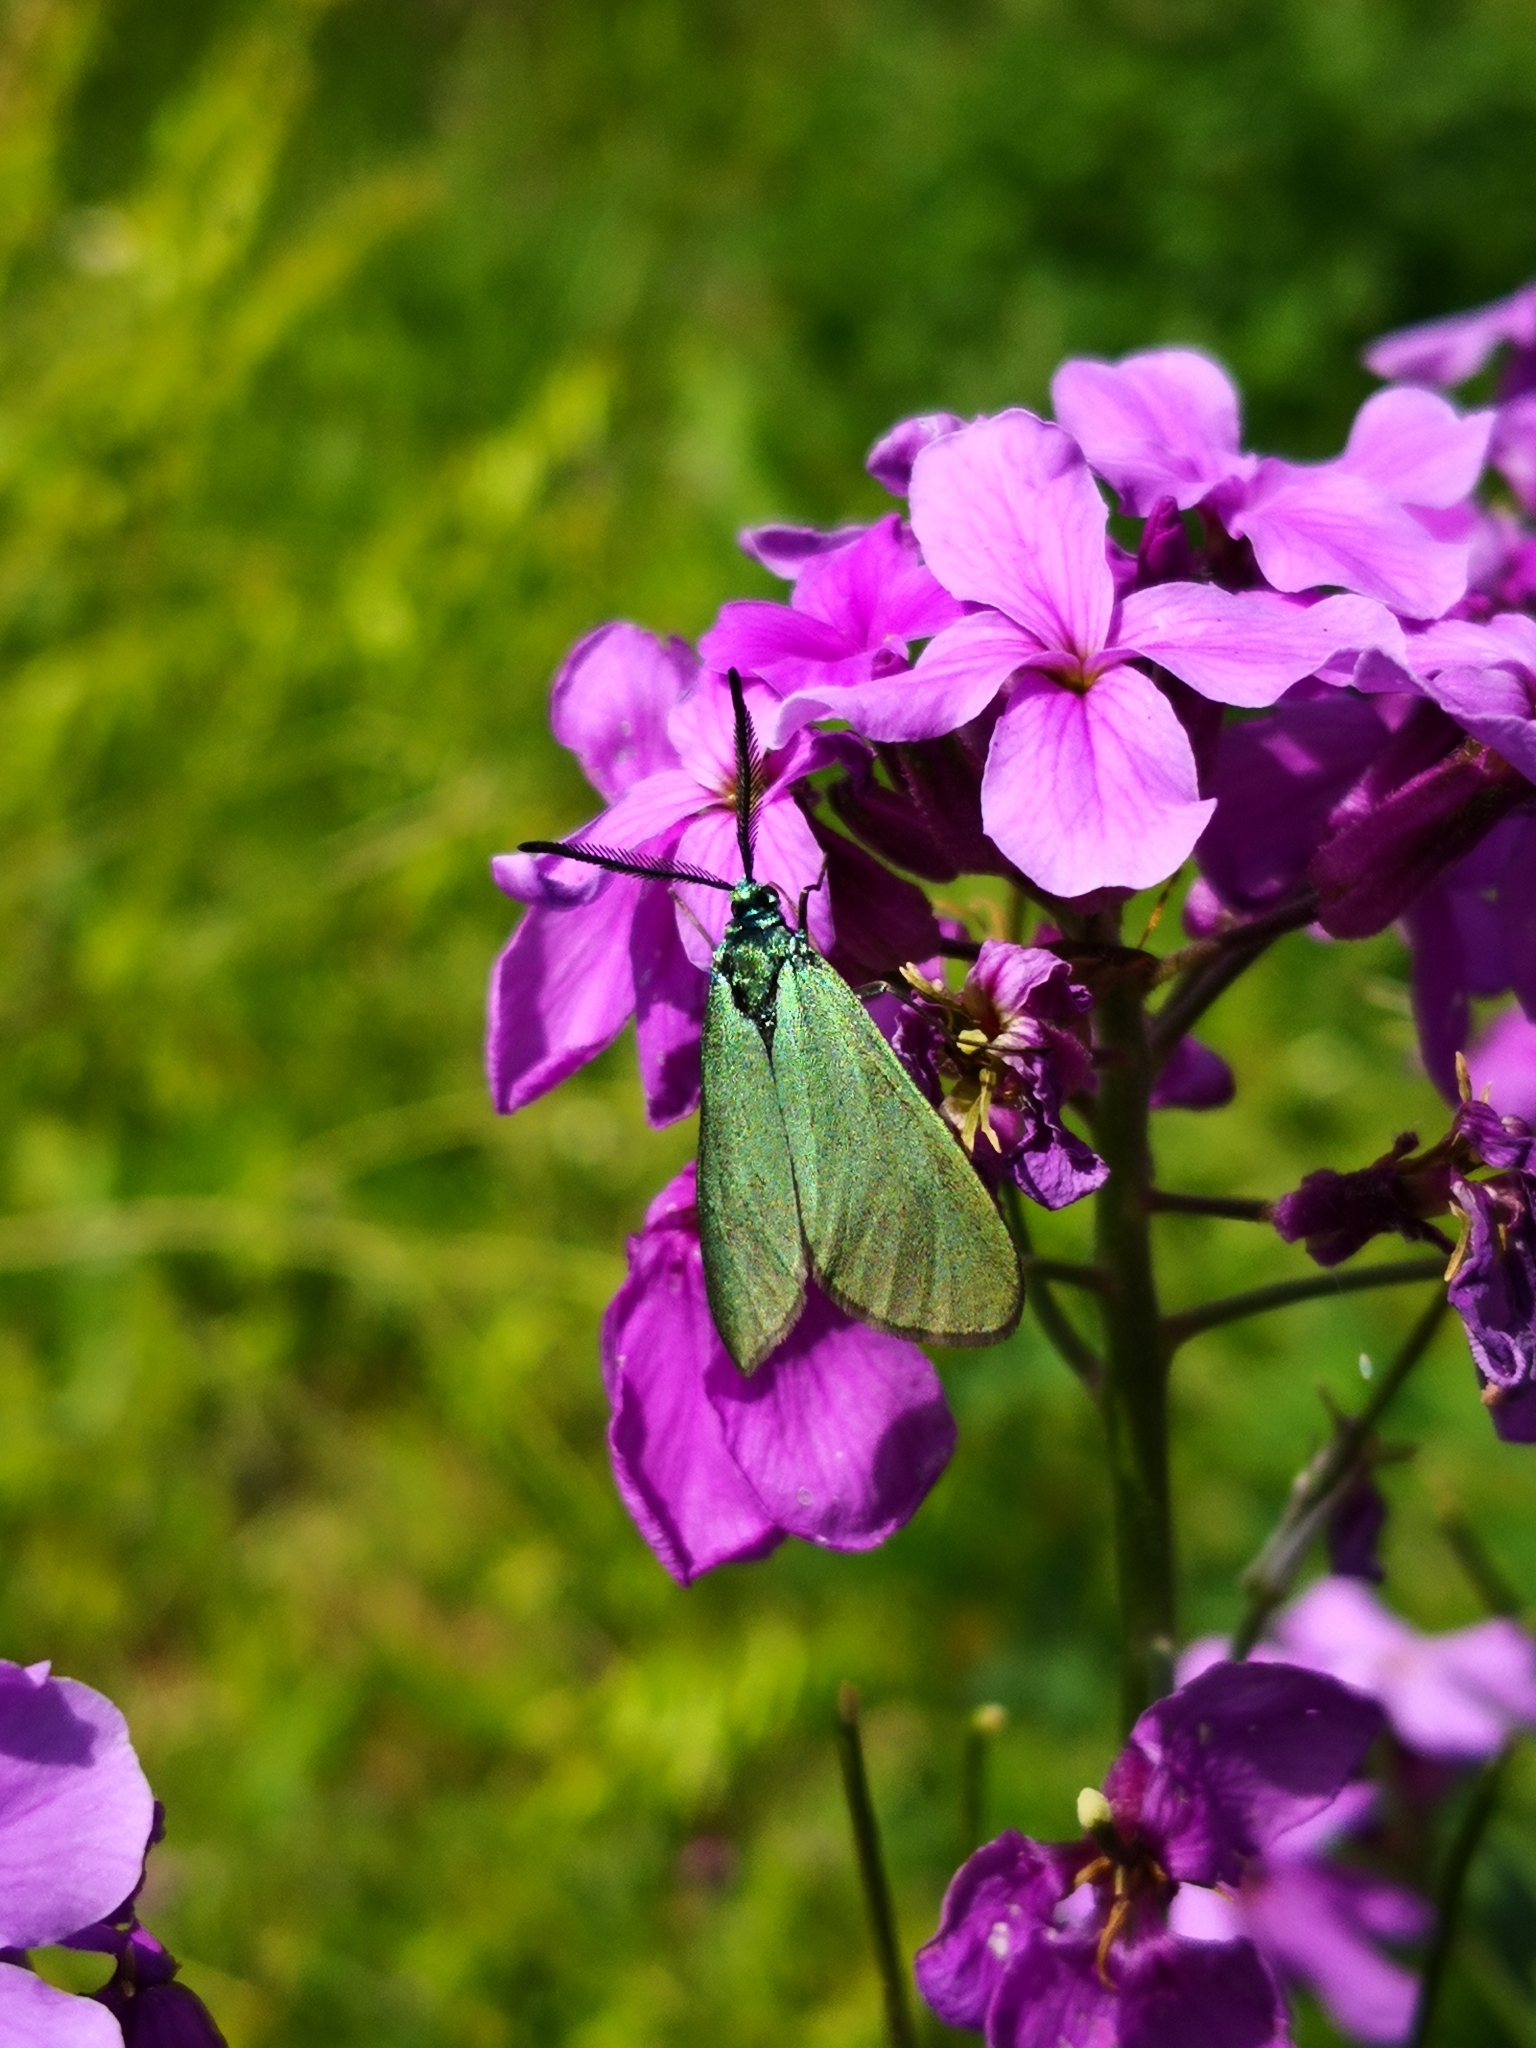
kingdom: Animalia
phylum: Arthropoda
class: Insecta
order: Lepidoptera
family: Zygaenidae
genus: Adscita
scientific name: Adscita statices
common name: Forester
